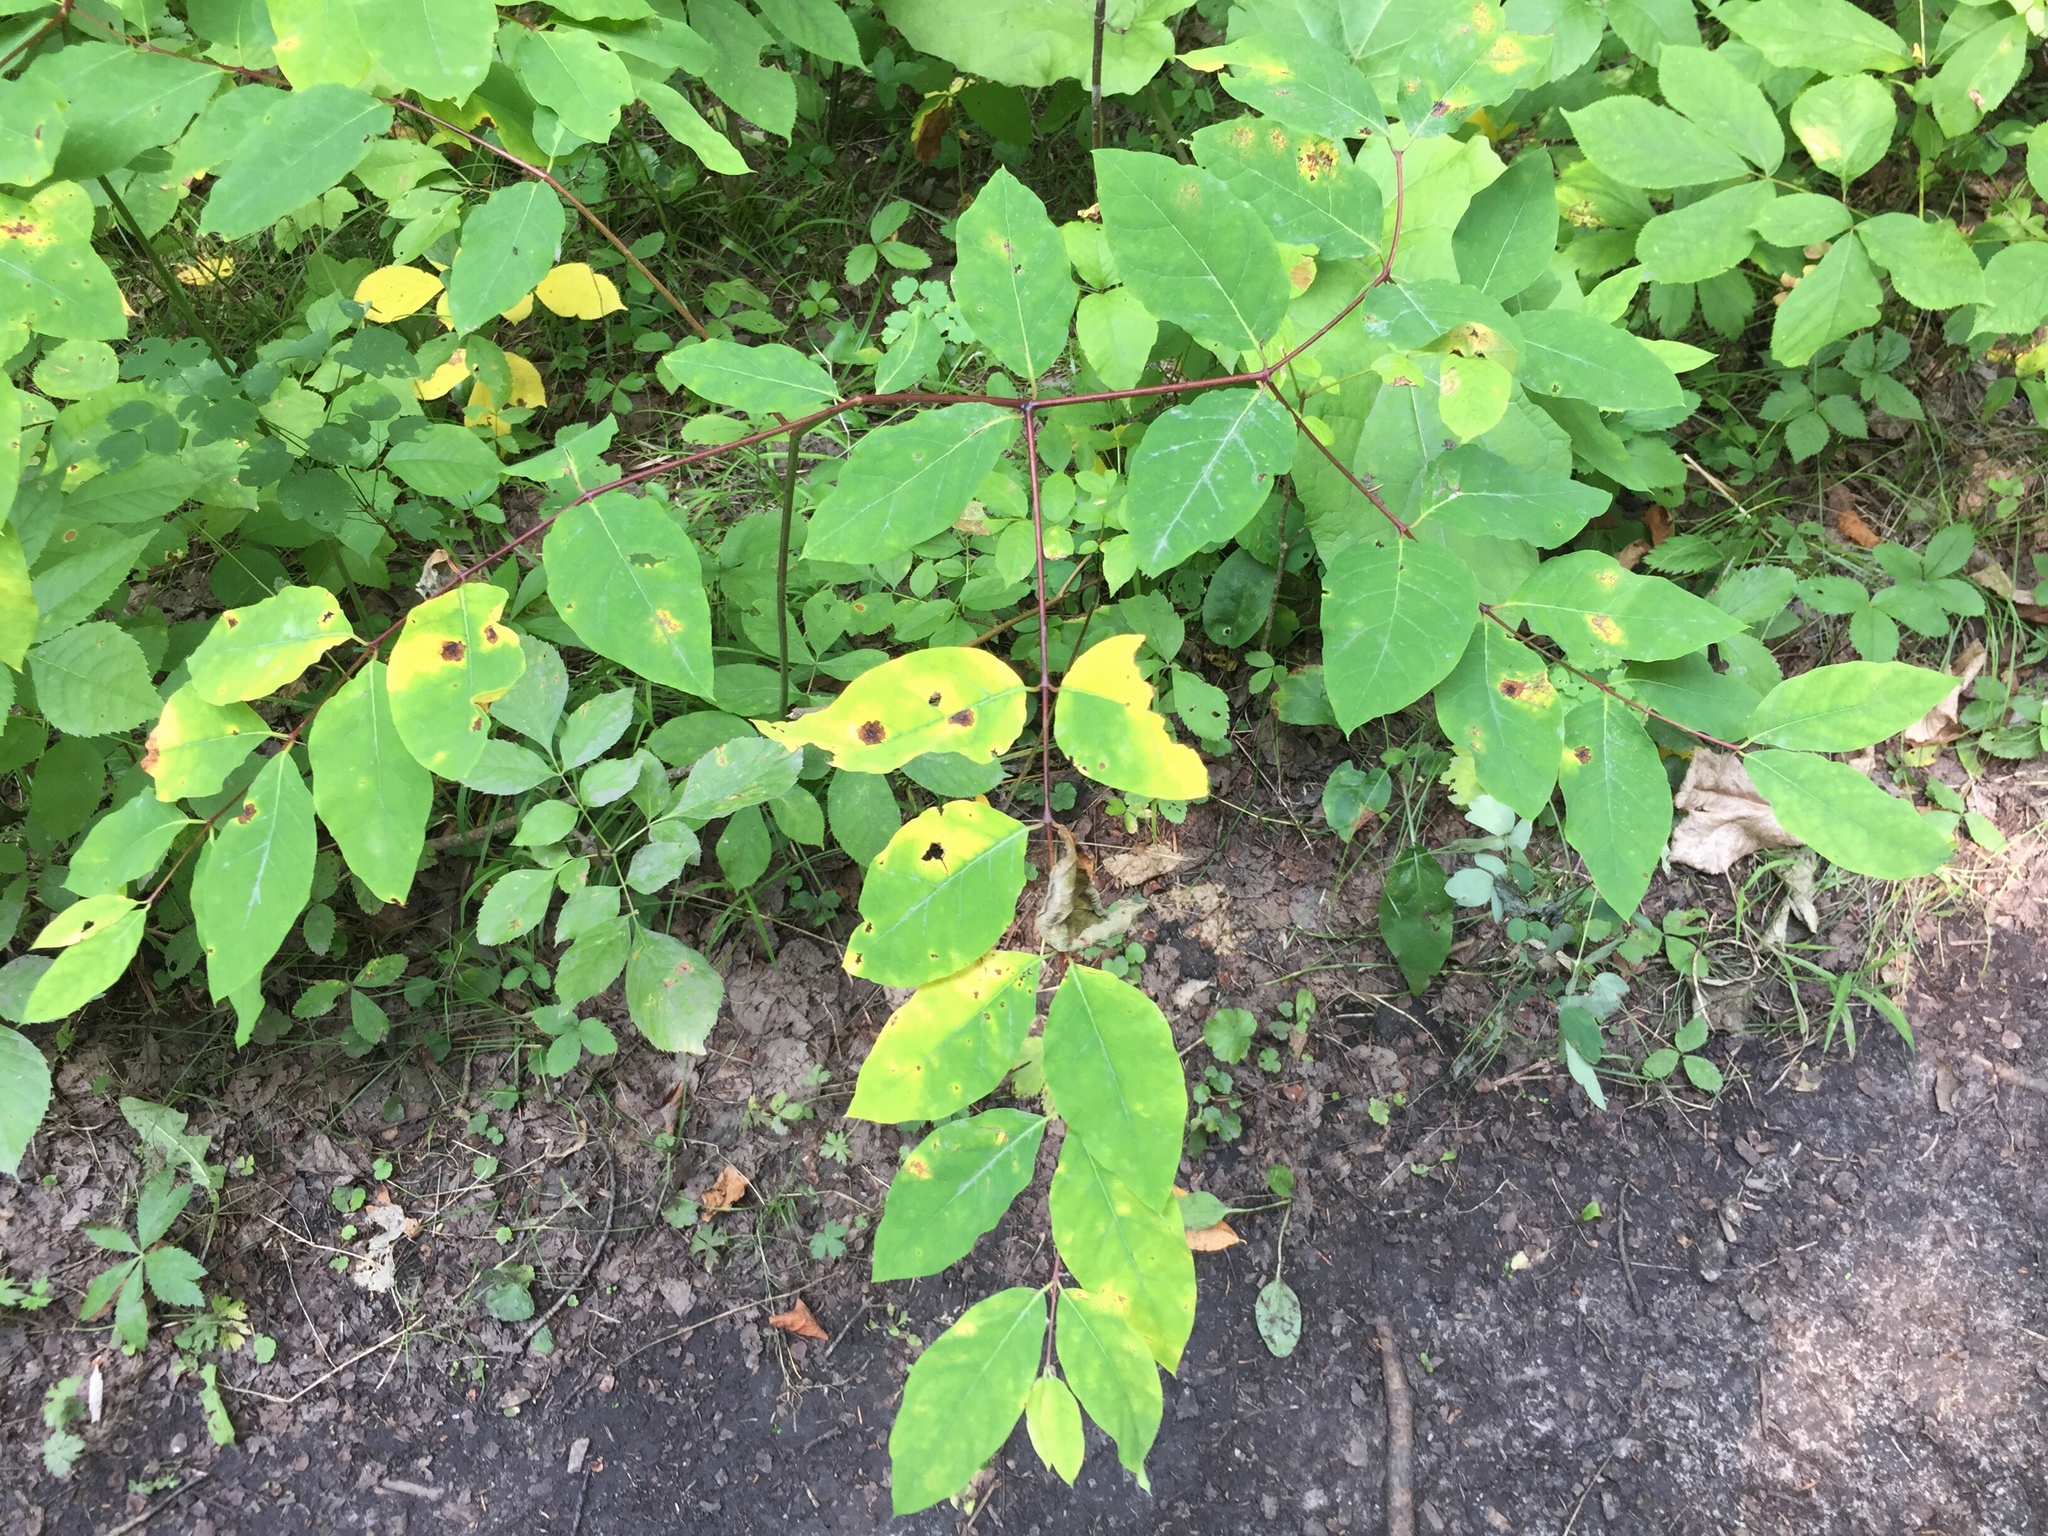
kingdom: Plantae
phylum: Tracheophyta
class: Magnoliopsida
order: Gentianales
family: Apocynaceae
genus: Apocynum
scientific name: Apocynum androsaemifolium
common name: Spreading dogbane
